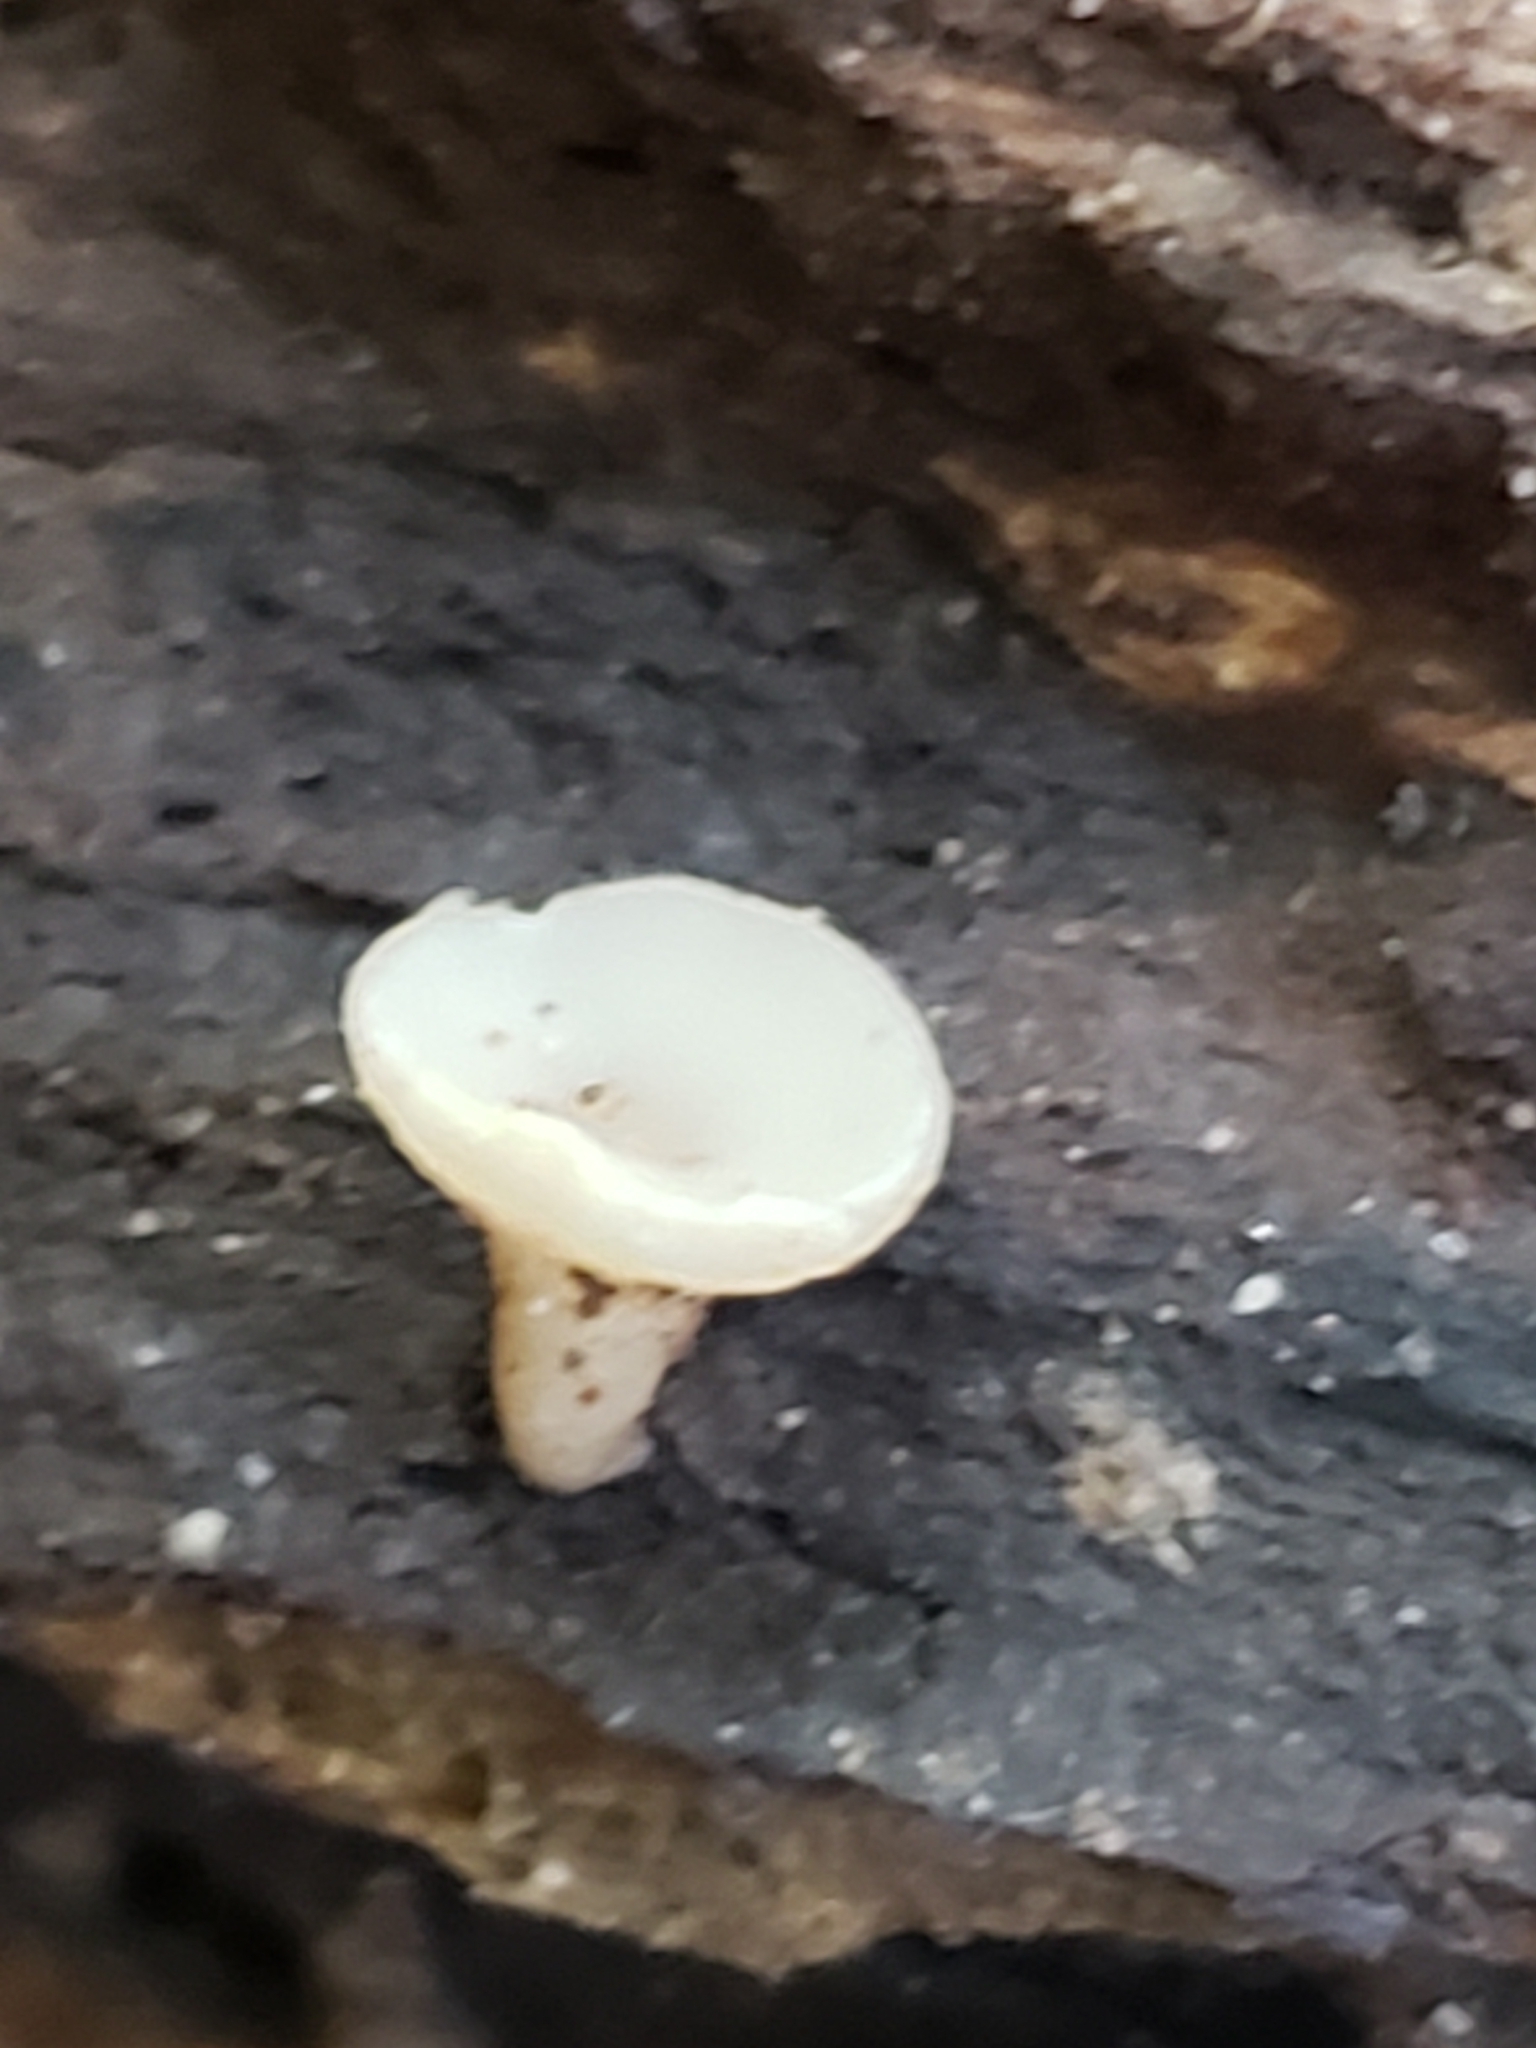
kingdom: Fungi
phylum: Ascomycota
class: Leotiomycetes
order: Helotiales
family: Helotiaceae
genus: Tatraea
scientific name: Tatraea macrospora
